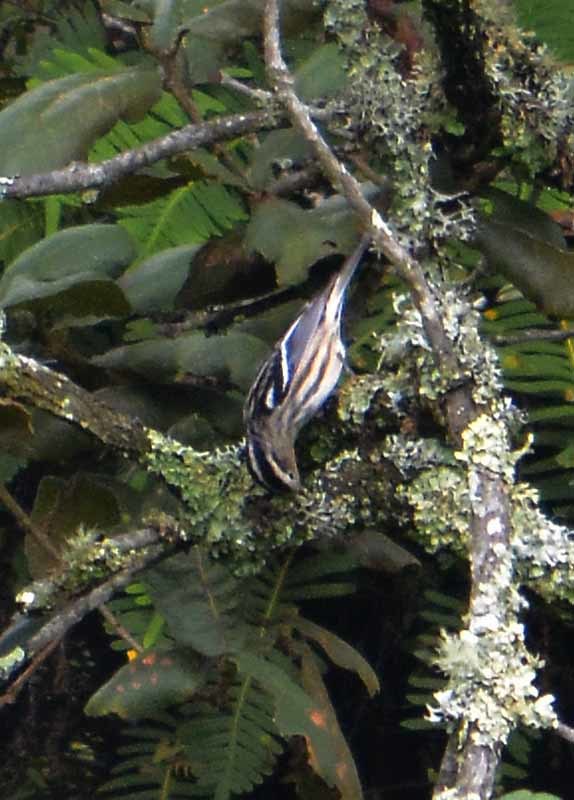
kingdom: Animalia
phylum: Chordata
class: Aves
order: Passeriformes
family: Parulidae
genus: Mniotilta
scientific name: Mniotilta varia
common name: Black-and-white warbler
